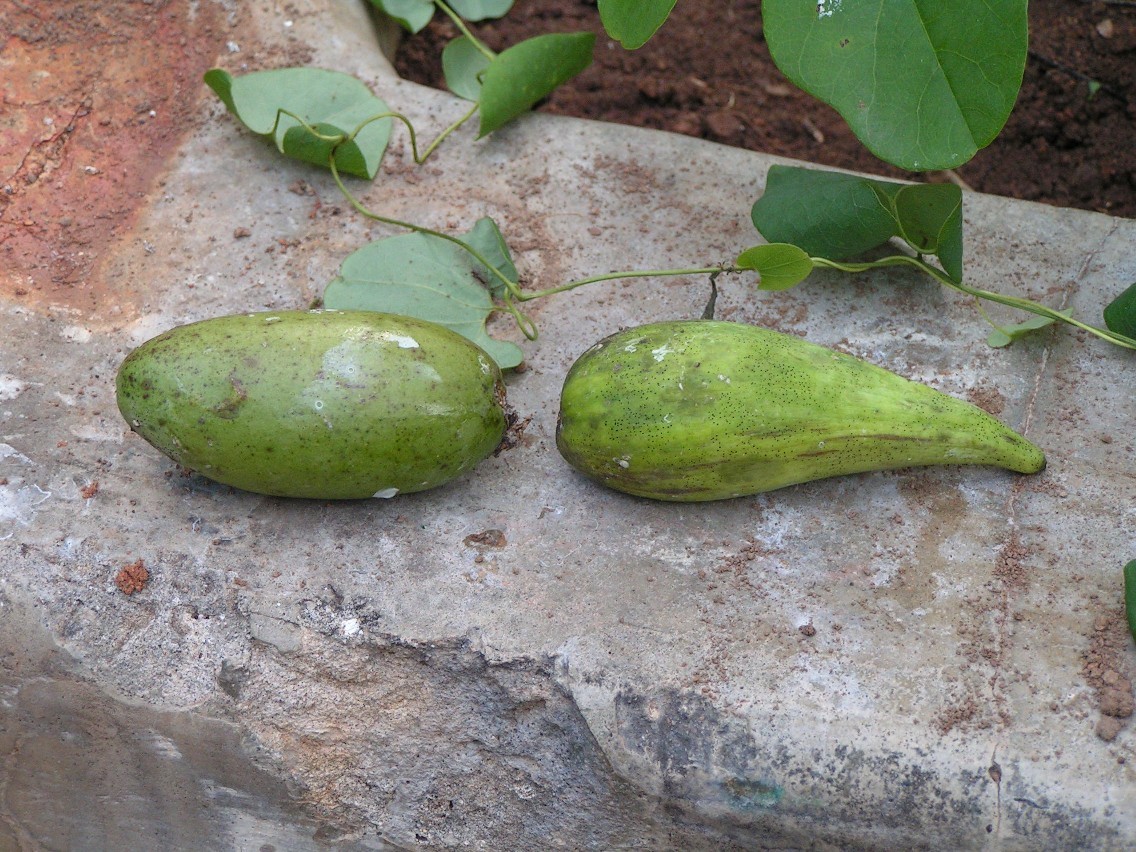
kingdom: Plantae
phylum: Tracheophyta
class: Magnoliopsida
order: Gentianales
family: Apocynaceae
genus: Ruehssia
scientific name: Ruehssia edulis
